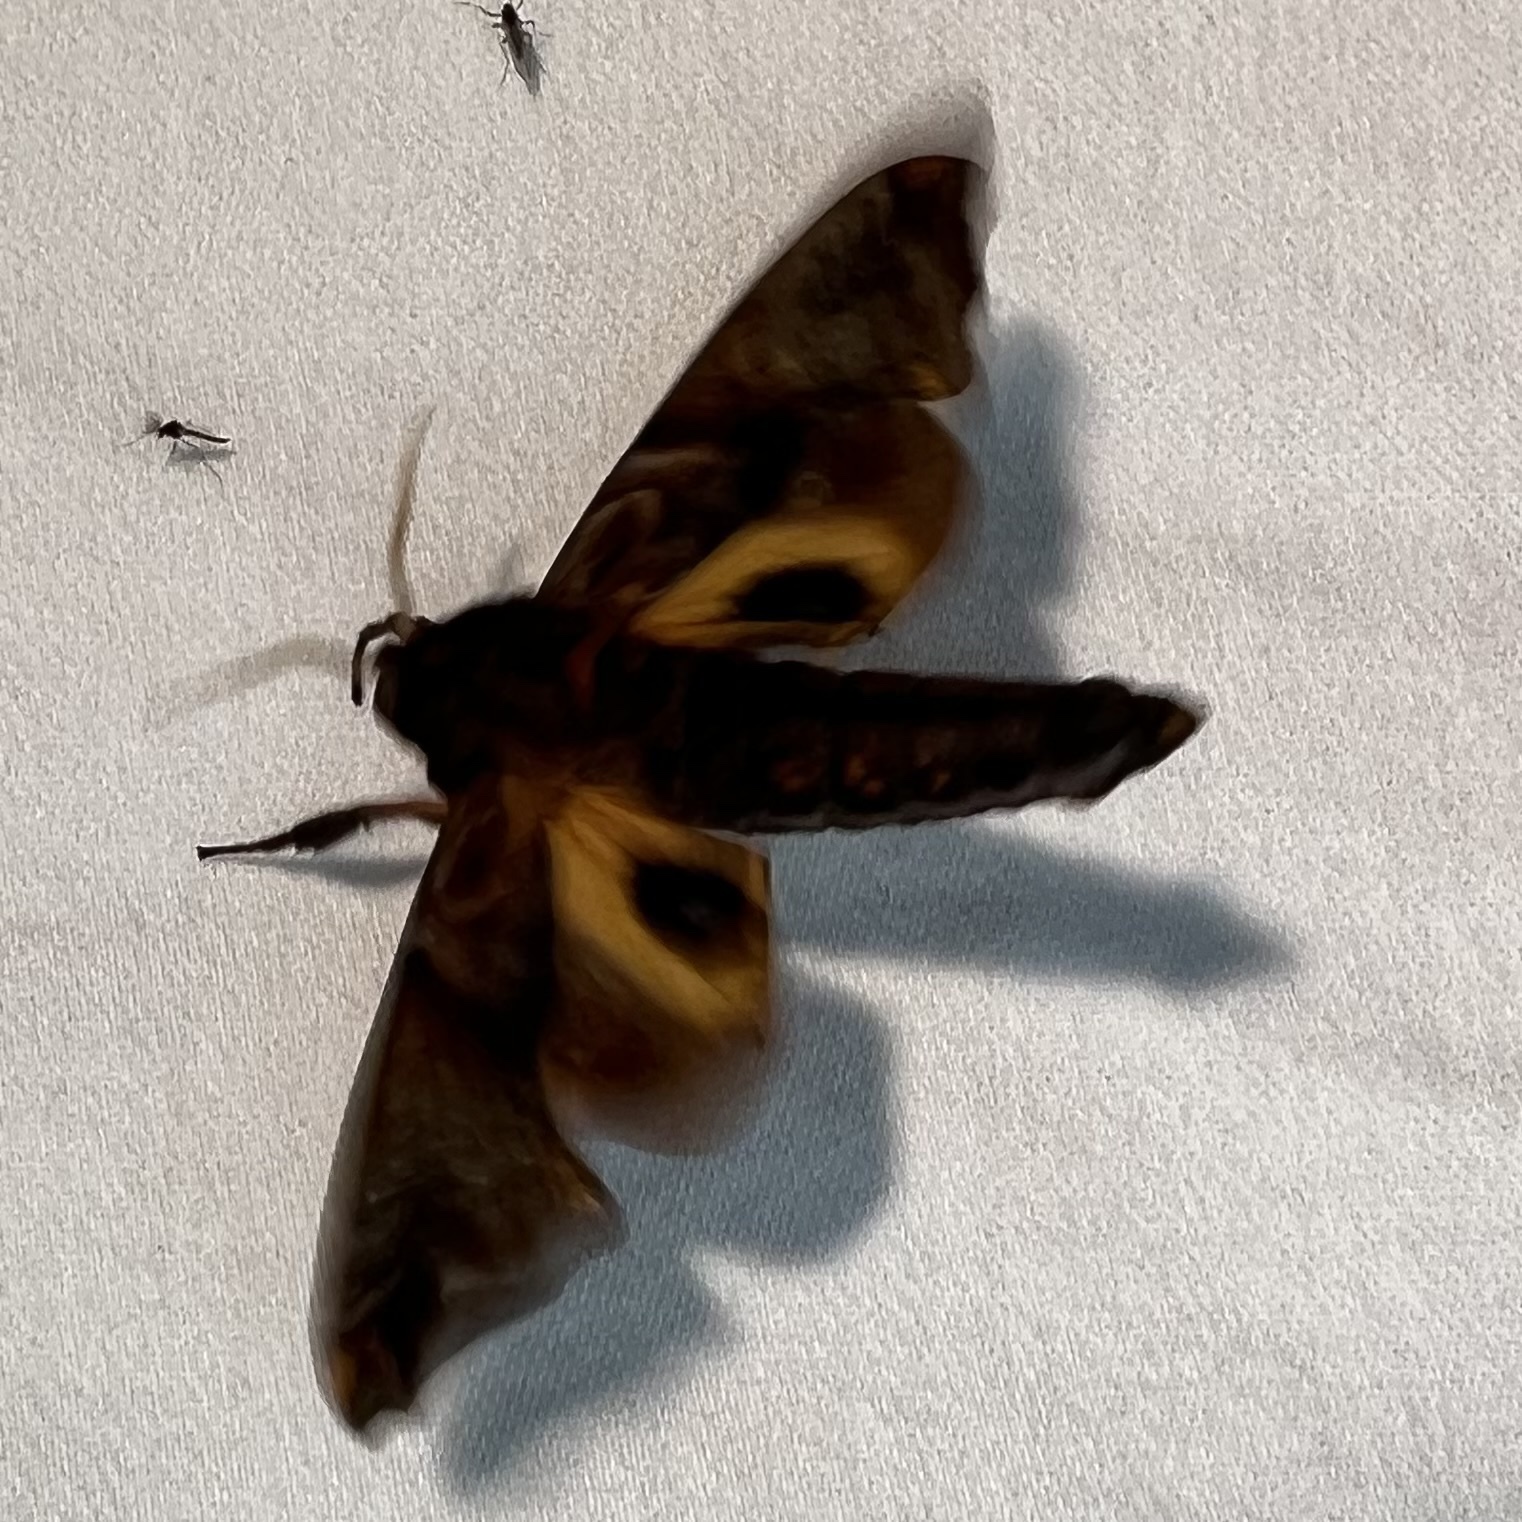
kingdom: Animalia
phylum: Arthropoda
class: Insecta
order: Lepidoptera
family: Sphingidae
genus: Paonias
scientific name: Paonias myops
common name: Small-eyed sphinx
